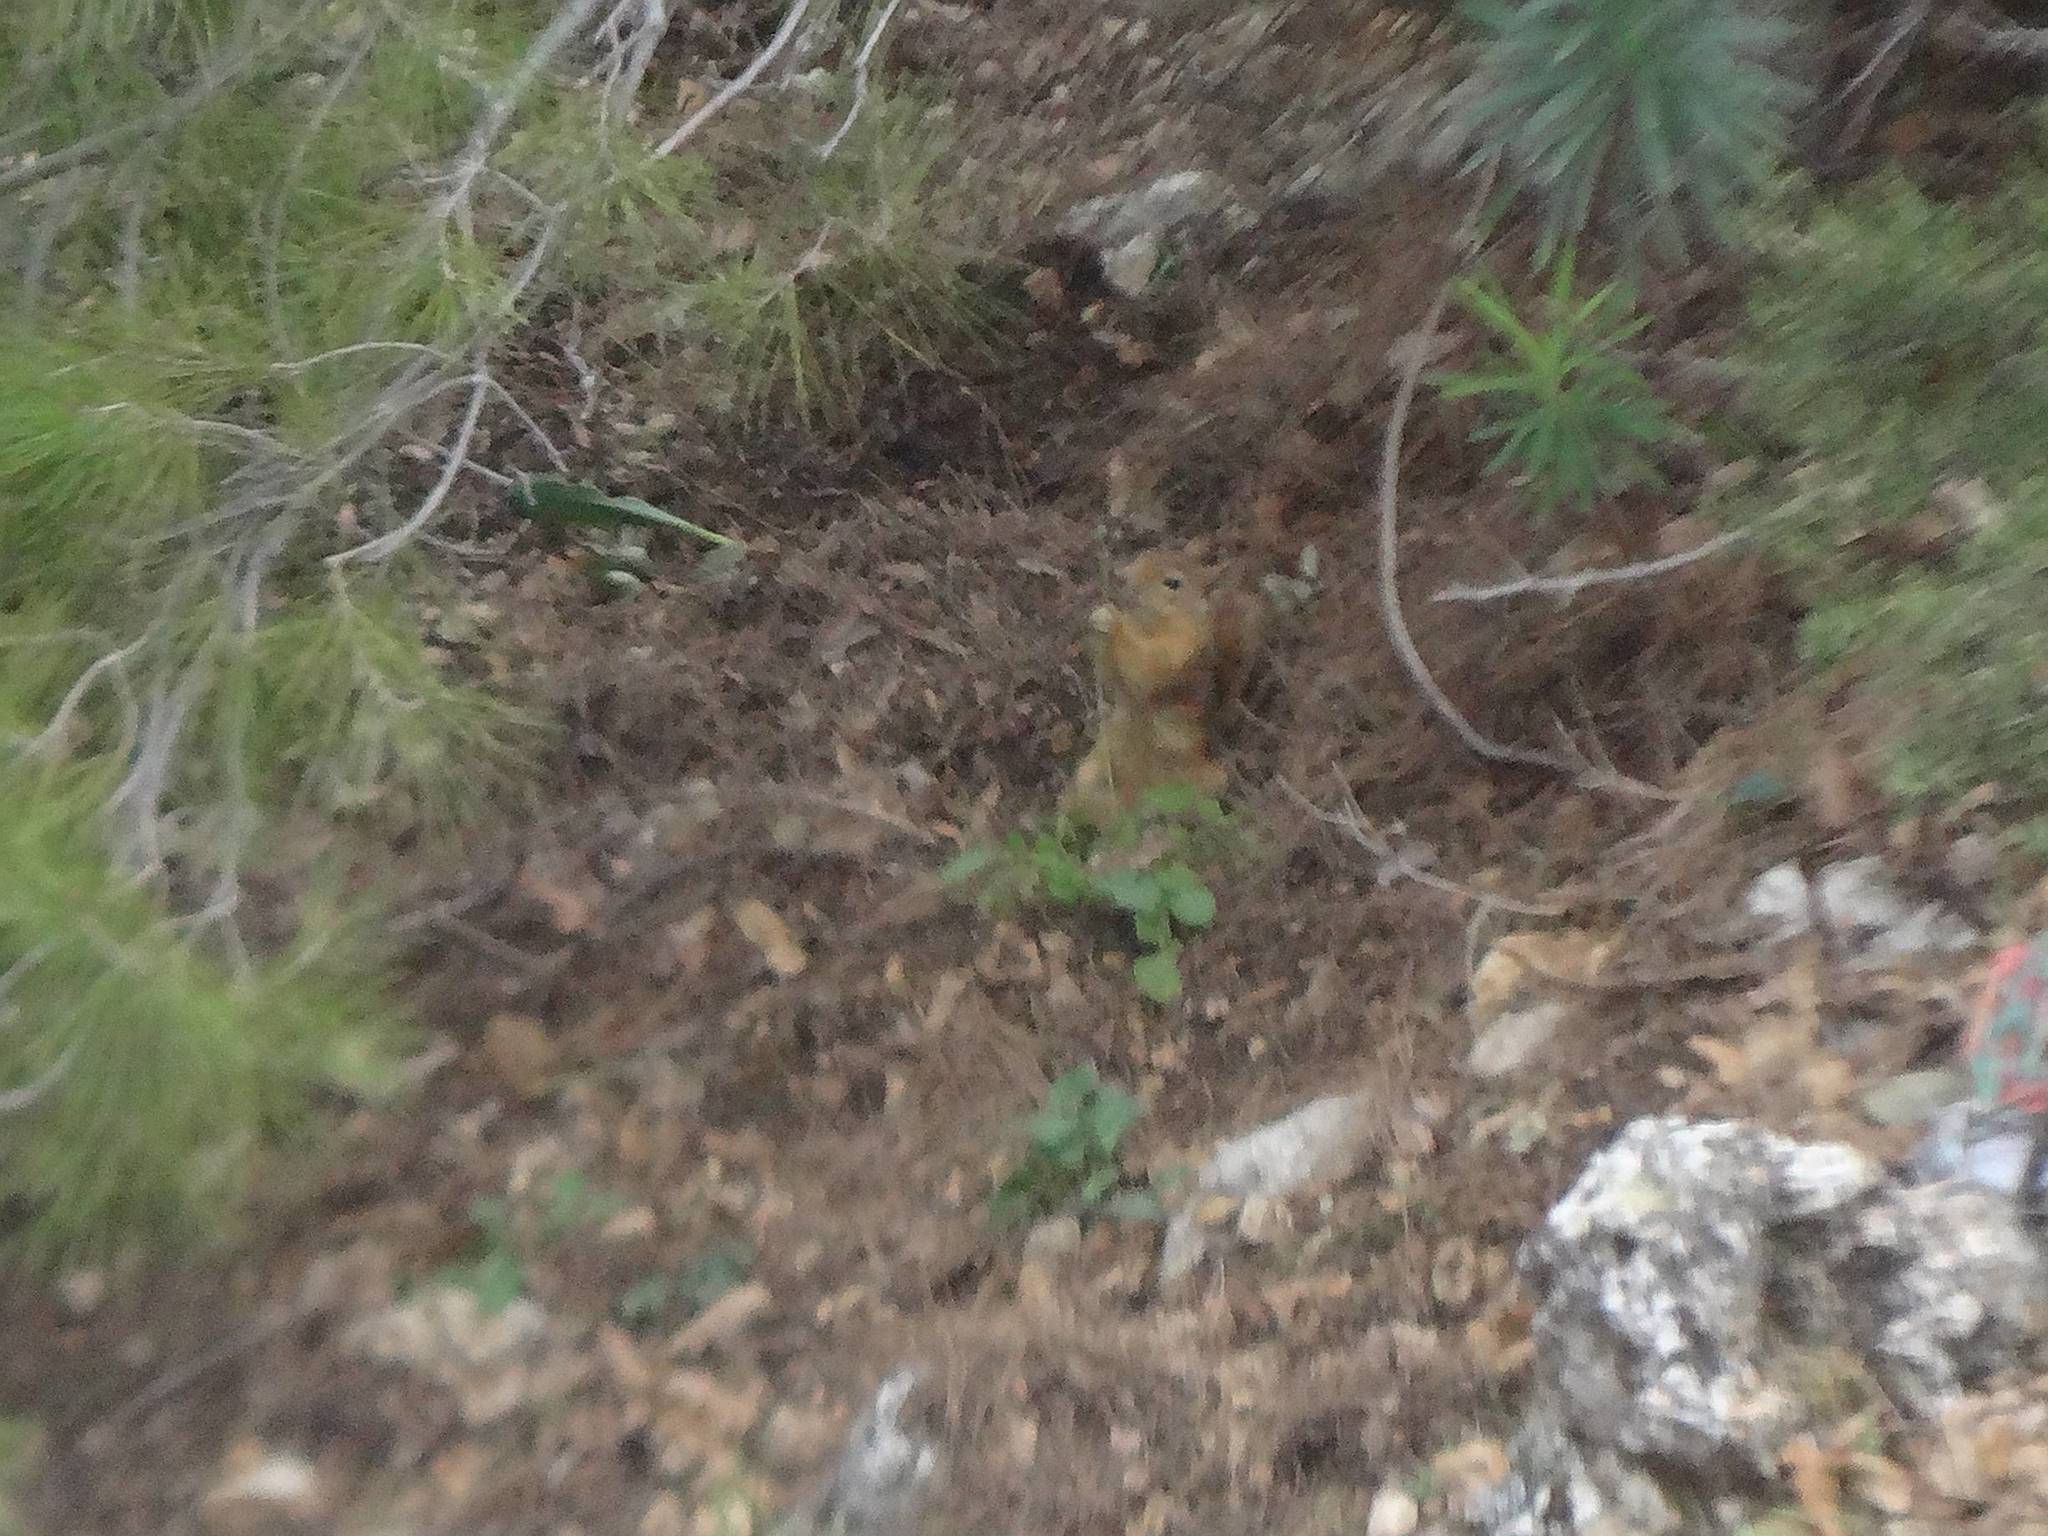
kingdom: Animalia
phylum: Chordata
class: Mammalia
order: Rodentia
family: Sciuridae
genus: Sciurus
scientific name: Sciurus anomalus
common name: Caucasian squirrel
